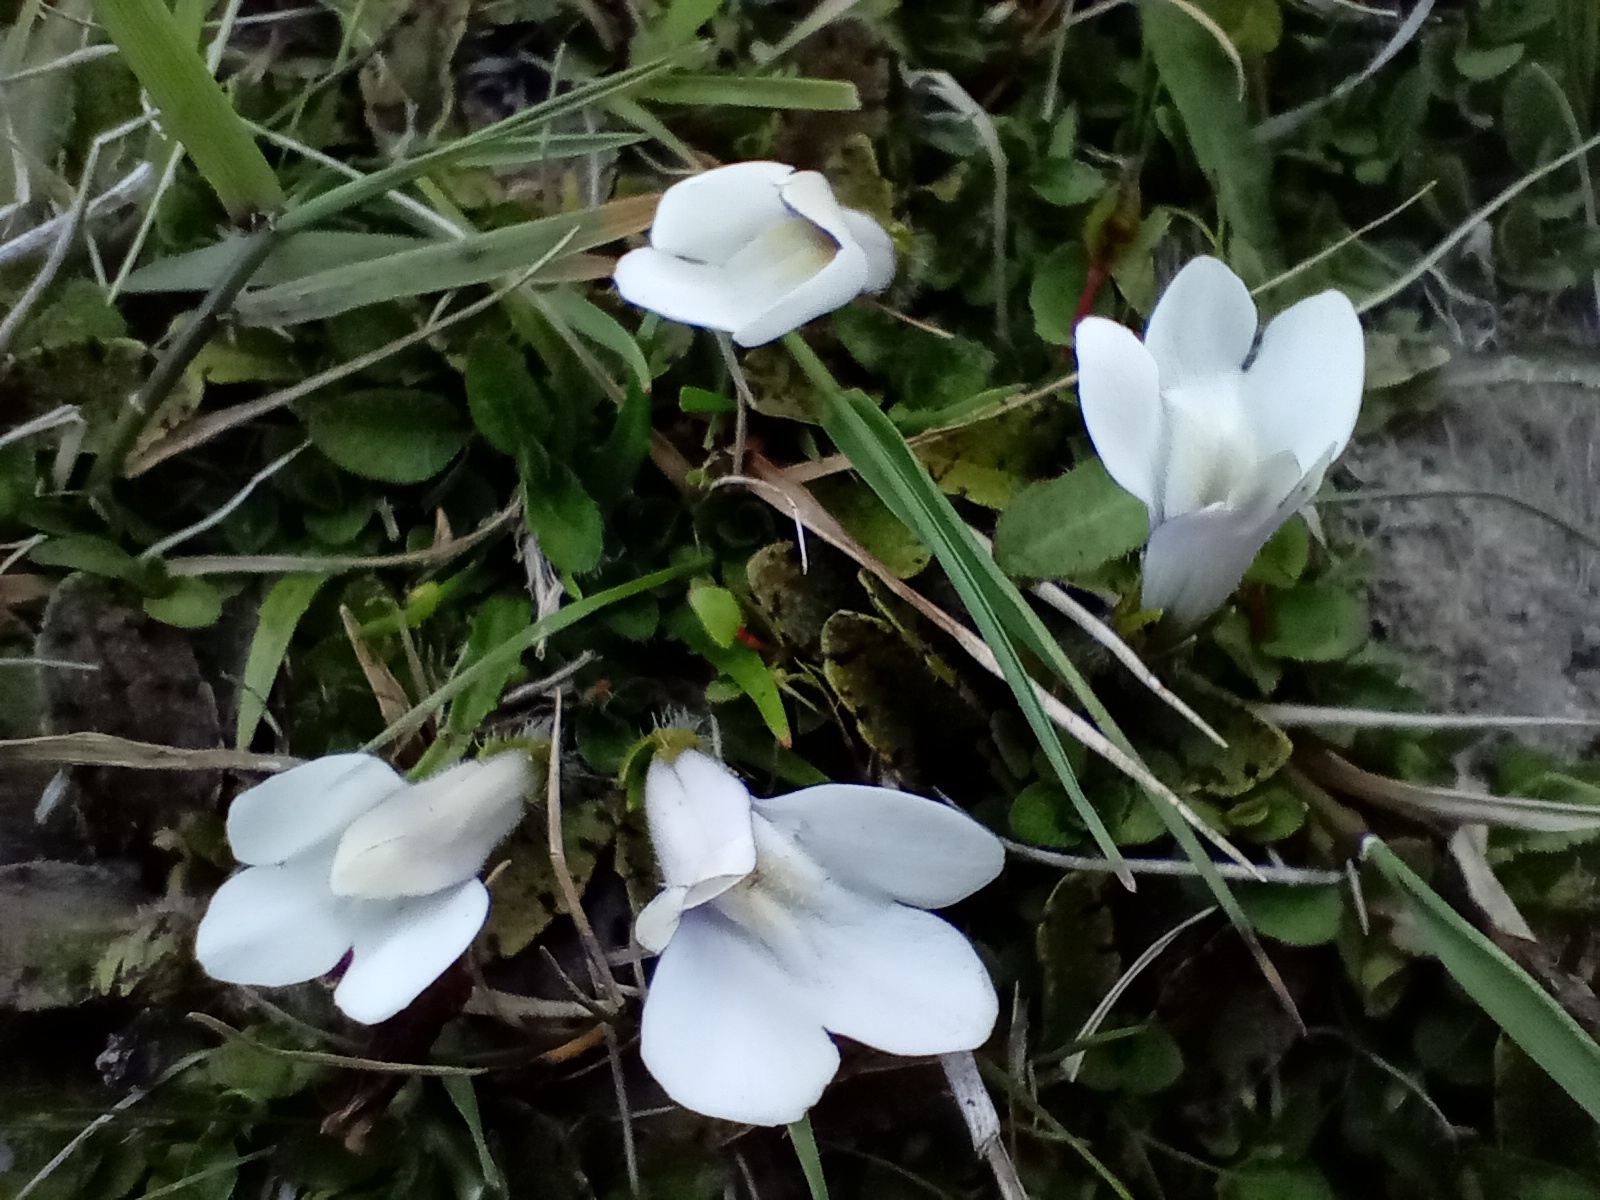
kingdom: Plantae
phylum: Tracheophyta
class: Magnoliopsida
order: Lamiales
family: Mazaceae
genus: Mazus
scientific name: Mazus radicans
